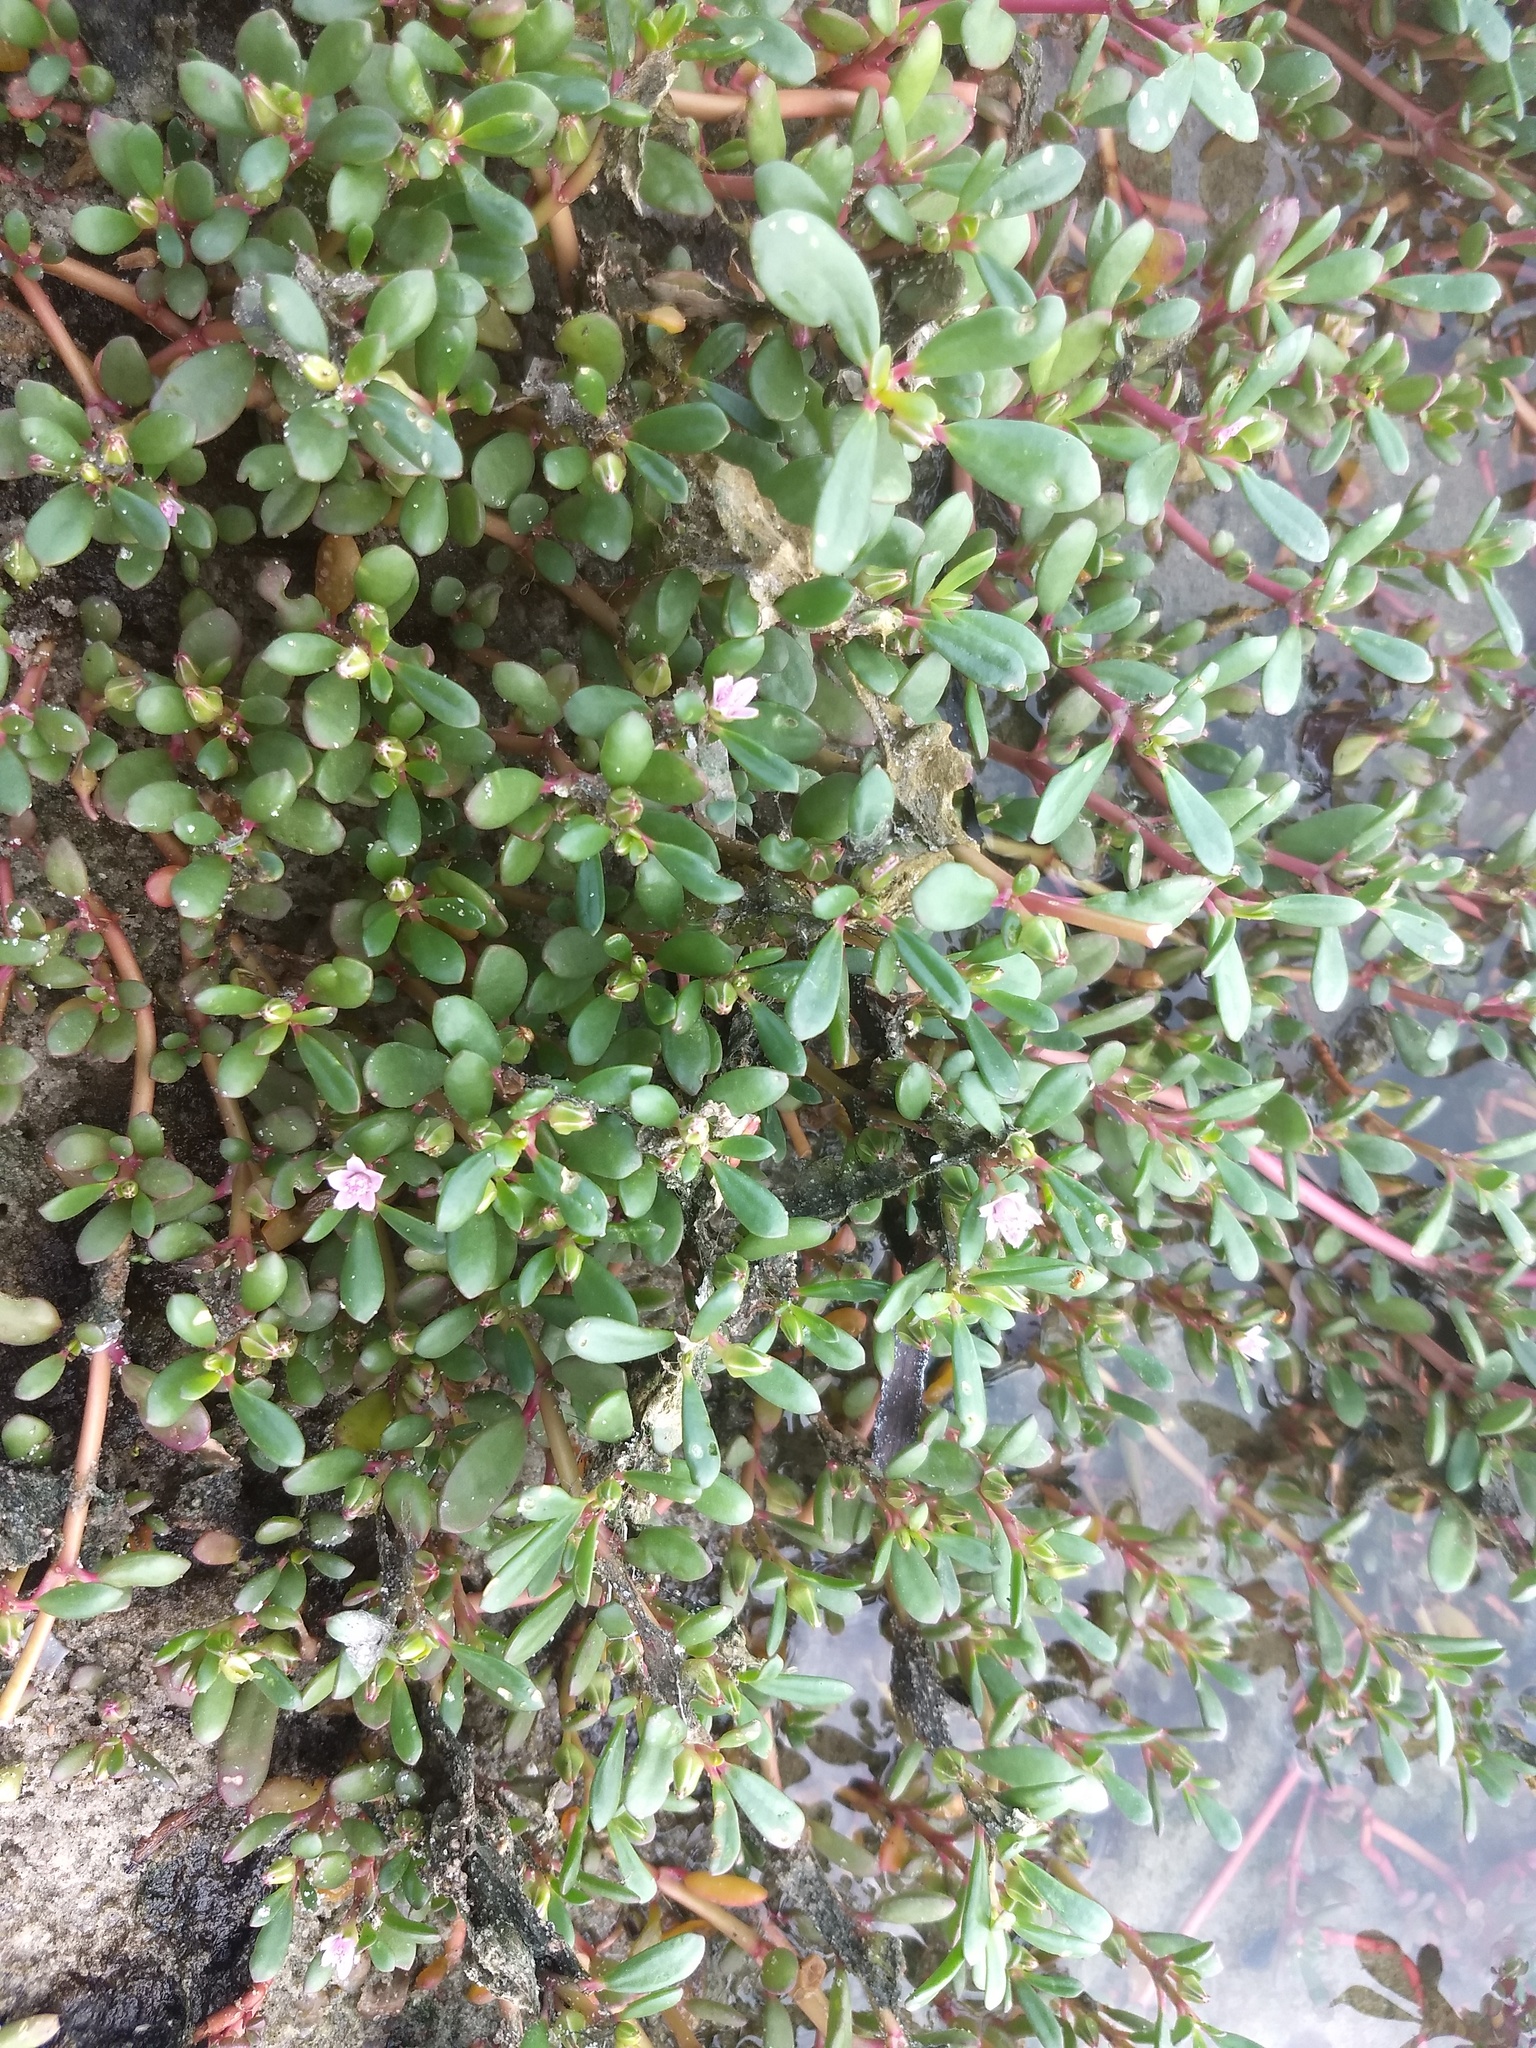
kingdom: Plantae
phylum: Tracheophyta
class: Magnoliopsida
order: Caryophyllales
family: Aizoaceae
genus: Sesuvium
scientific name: Sesuvium portulacastrum
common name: Sea-purslane
